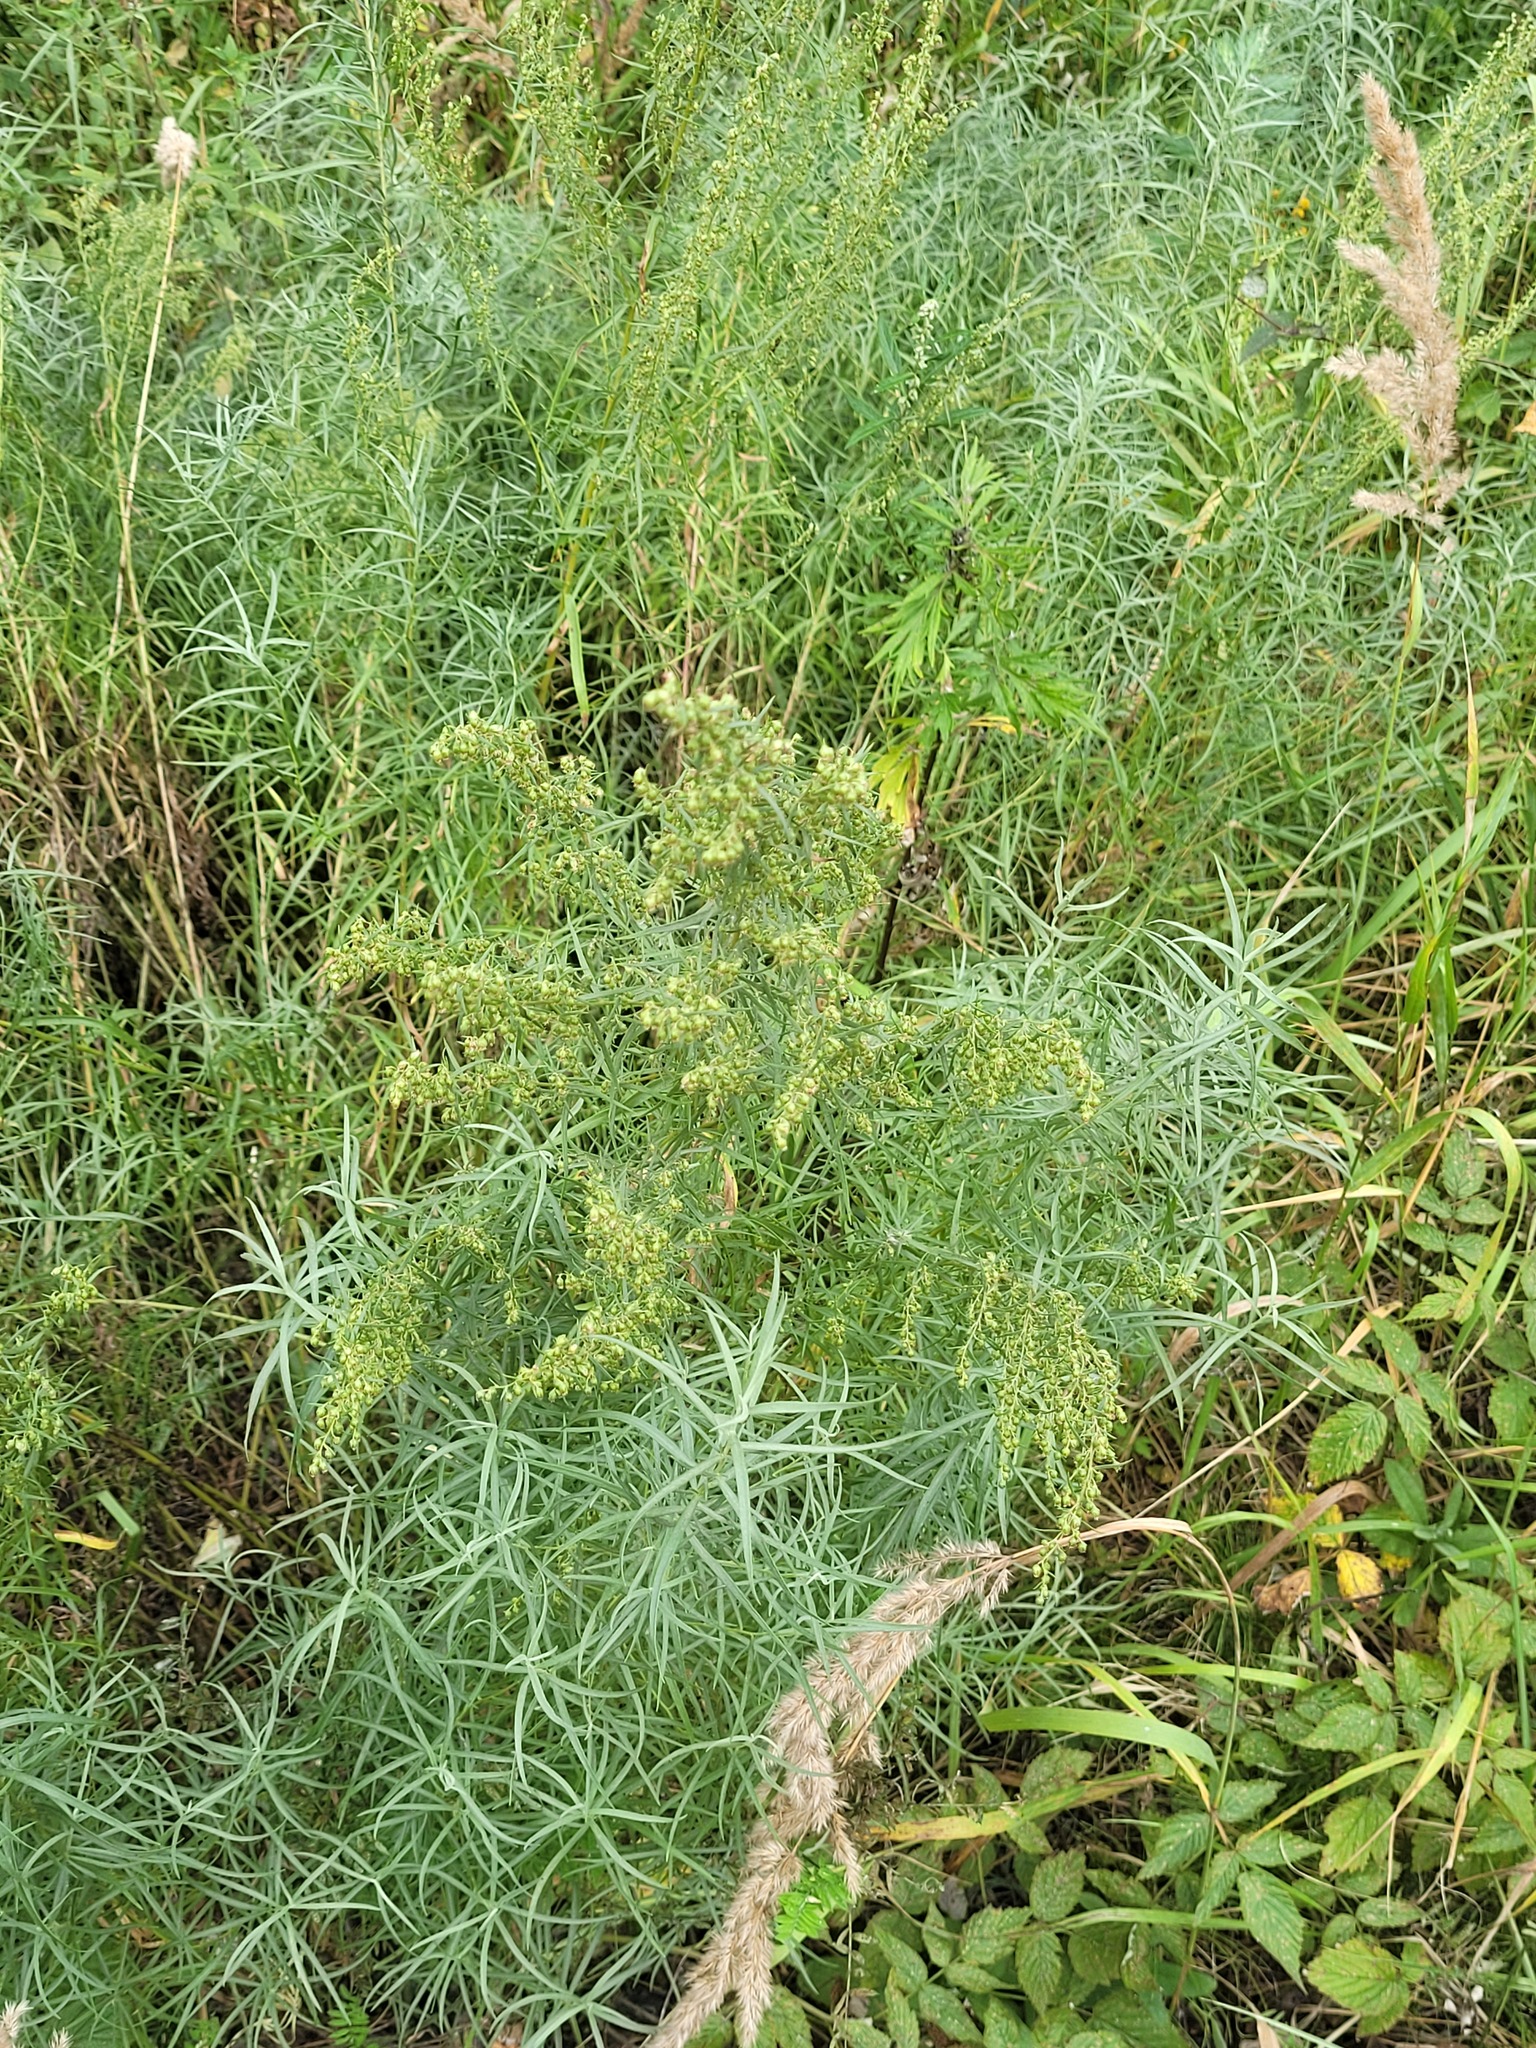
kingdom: Plantae
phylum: Tracheophyta
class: Magnoliopsida
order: Asterales
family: Asteraceae
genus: Artemisia
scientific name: Artemisia dracunculus
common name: Tarragon
